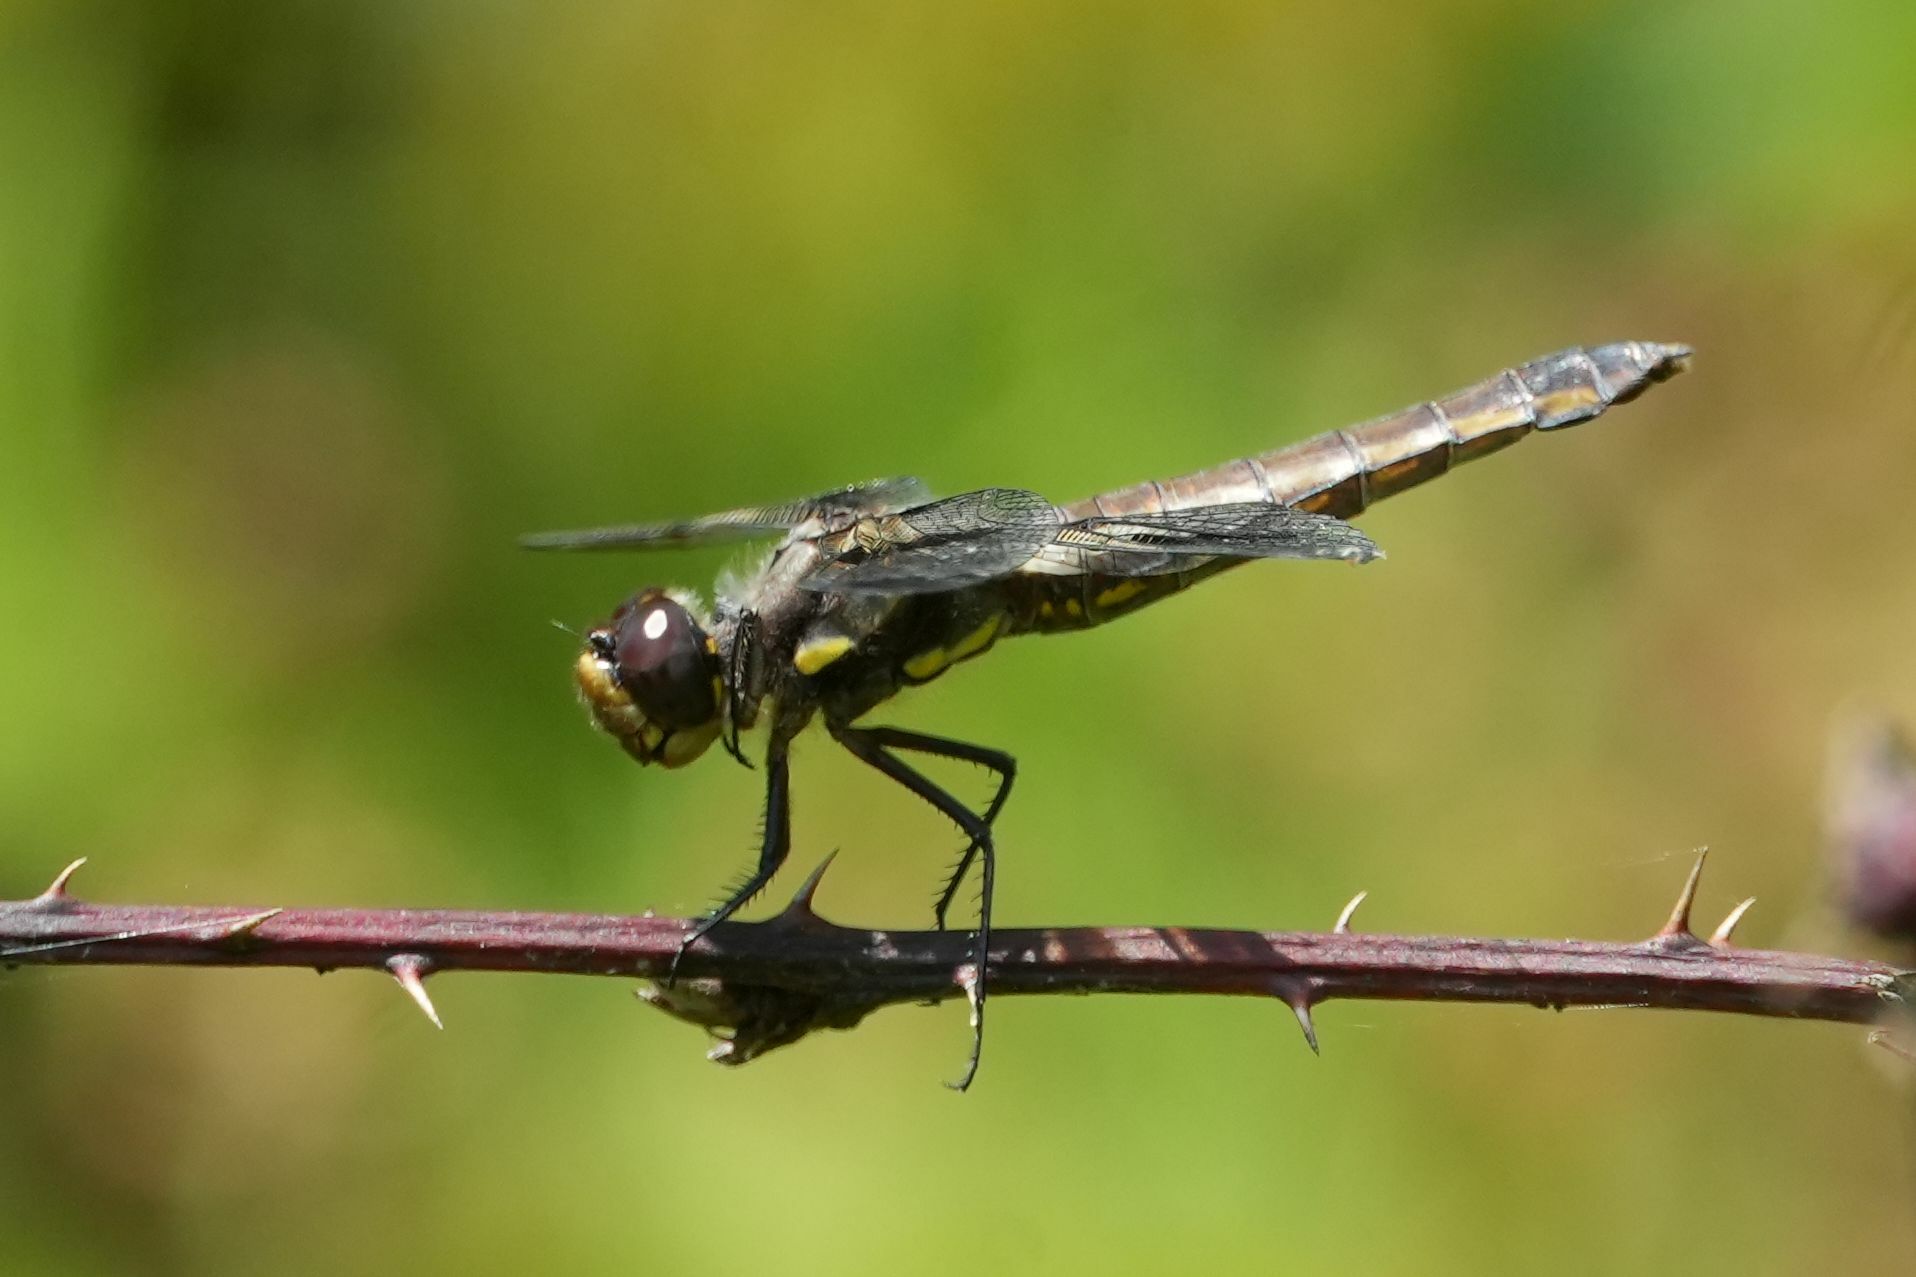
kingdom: Animalia
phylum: Arthropoda
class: Insecta
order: Odonata
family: Libellulidae
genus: Libellula
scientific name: Libellula pulchella
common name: Twelve-spotted skimmer
